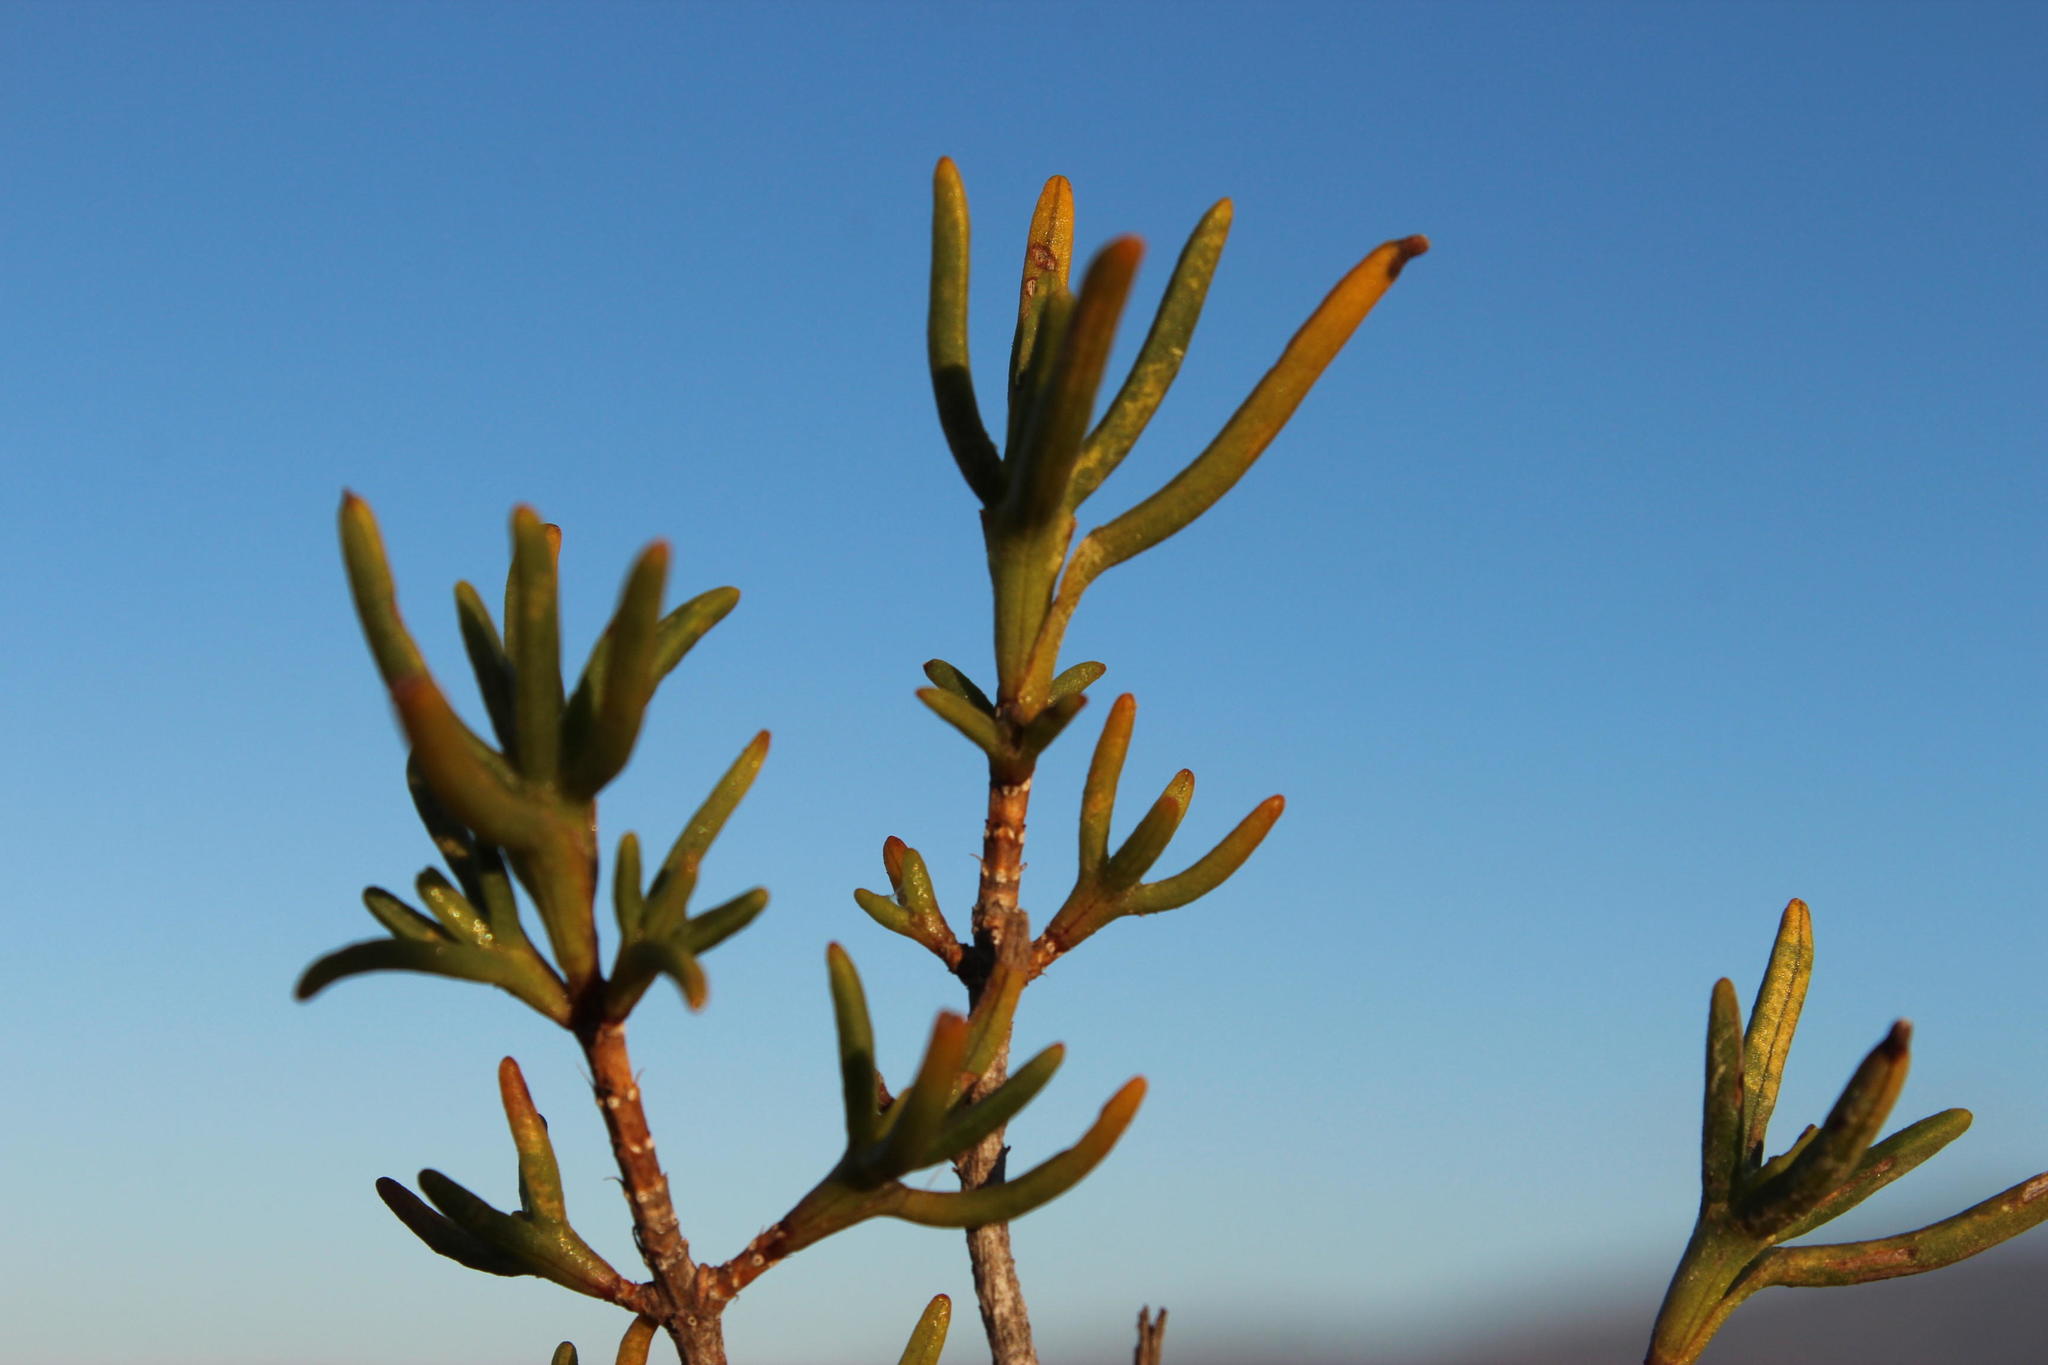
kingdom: Plantae
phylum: Tracheophyta
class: Magnoliopsida
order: Asterales
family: Asteraceae
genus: Pteronia
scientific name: Pteronia paniculata
